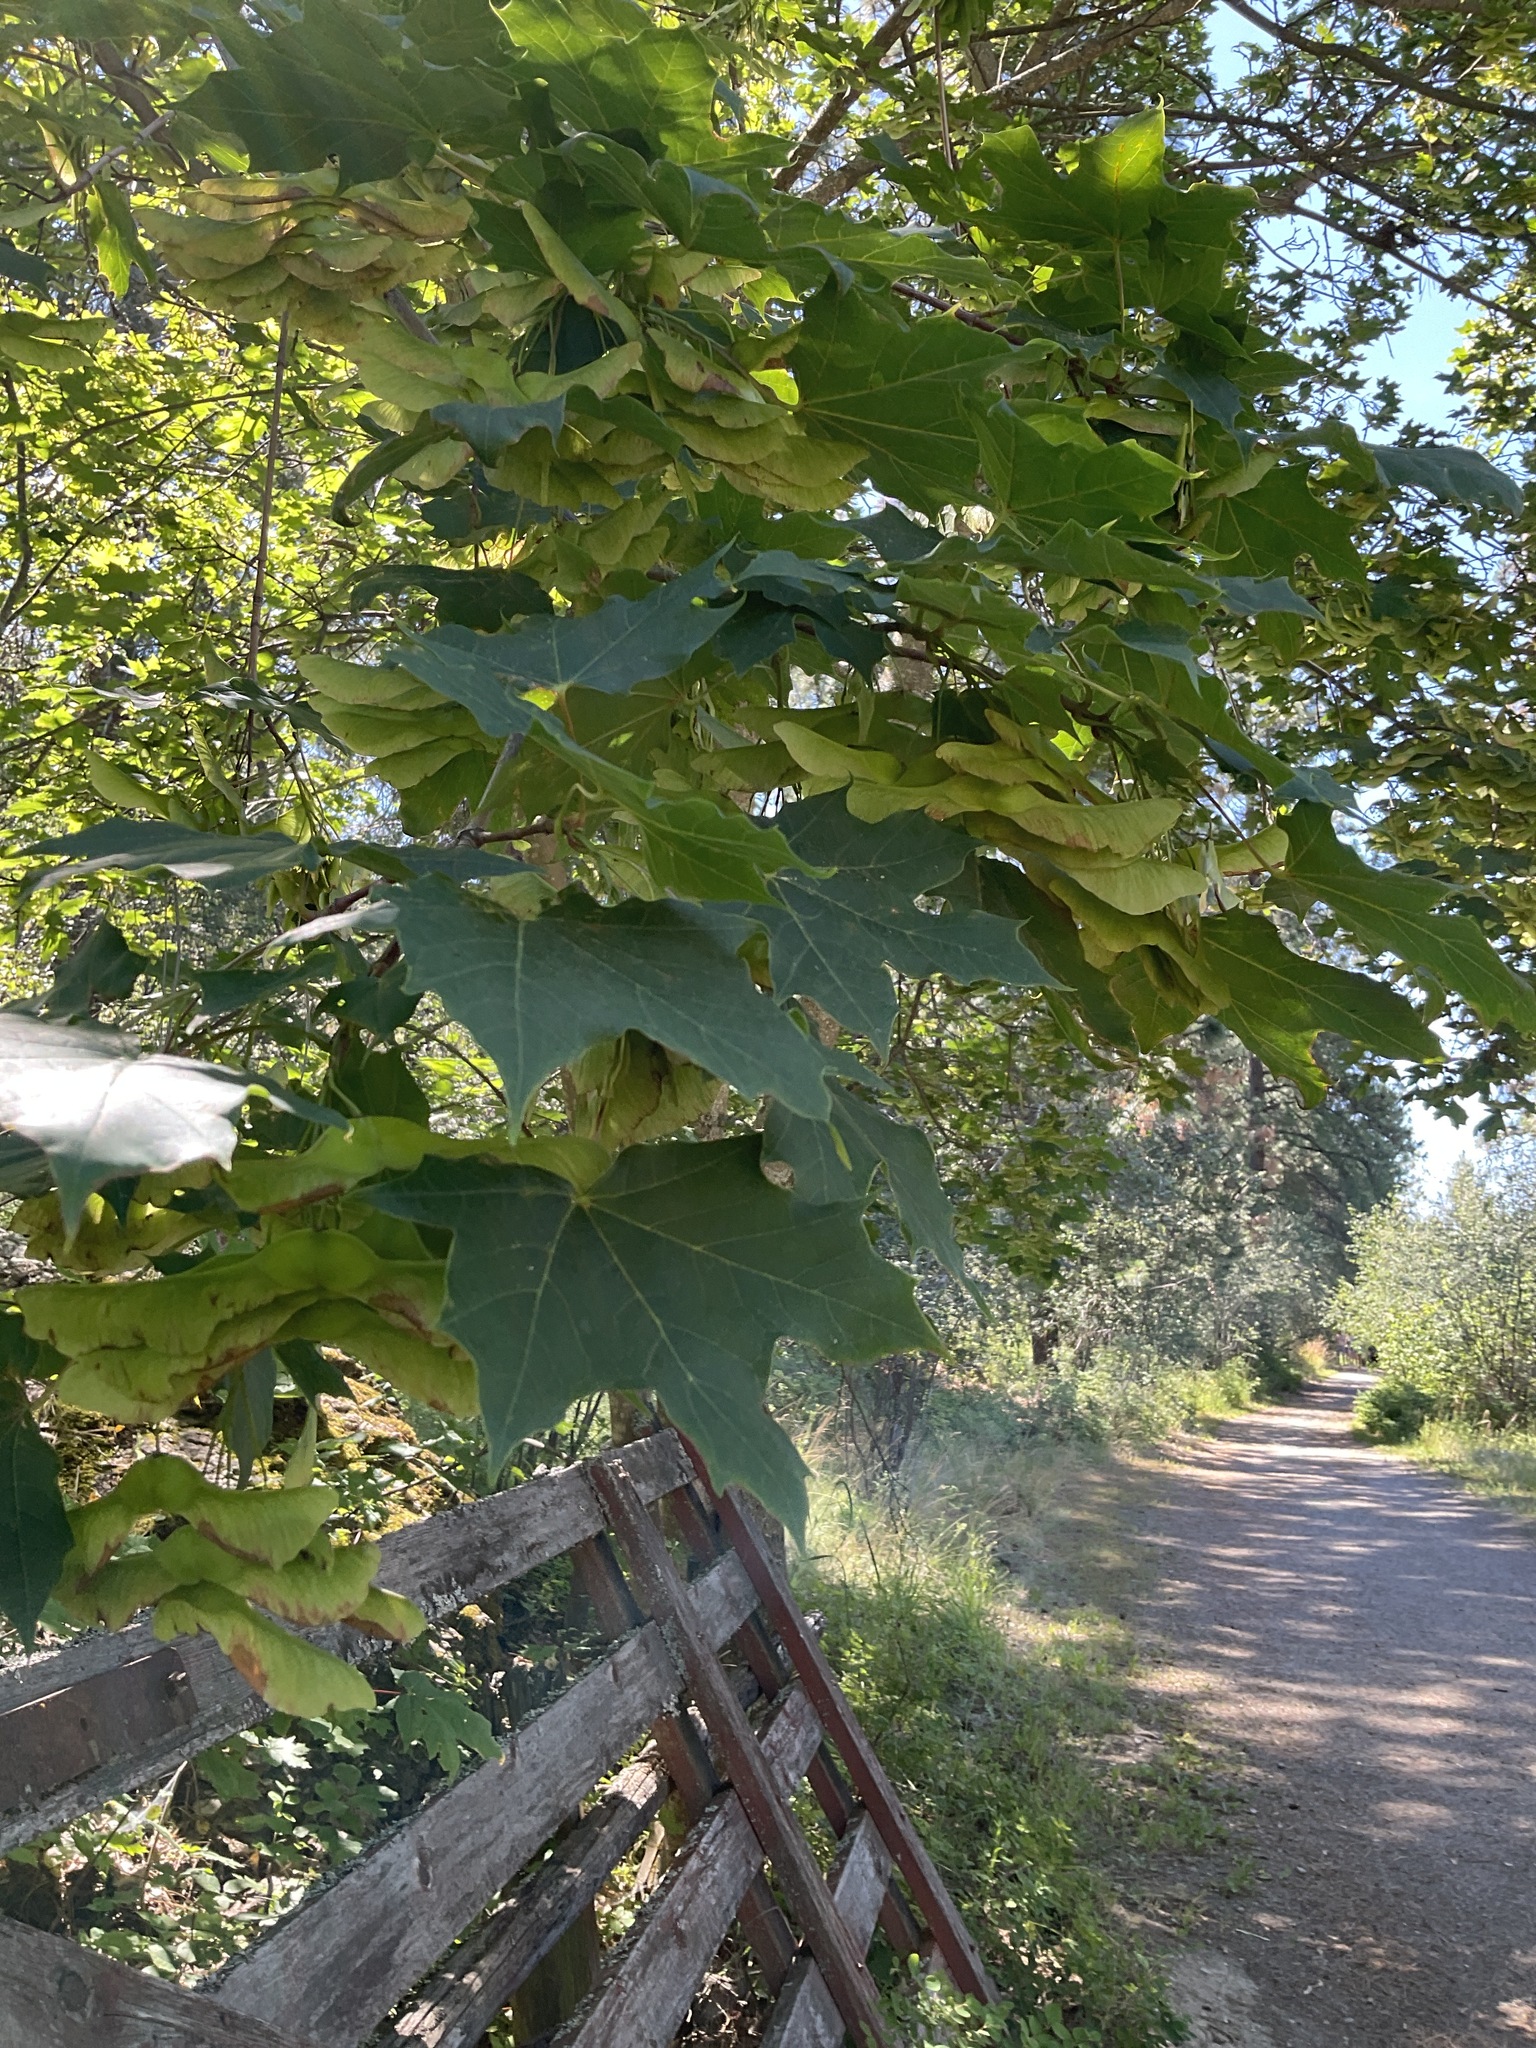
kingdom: Plantae
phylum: Tracheophyta
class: Magnoliopsida
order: Sapindales
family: Sapindaceae
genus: Acer
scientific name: Acer platanoides
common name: Norway maple
